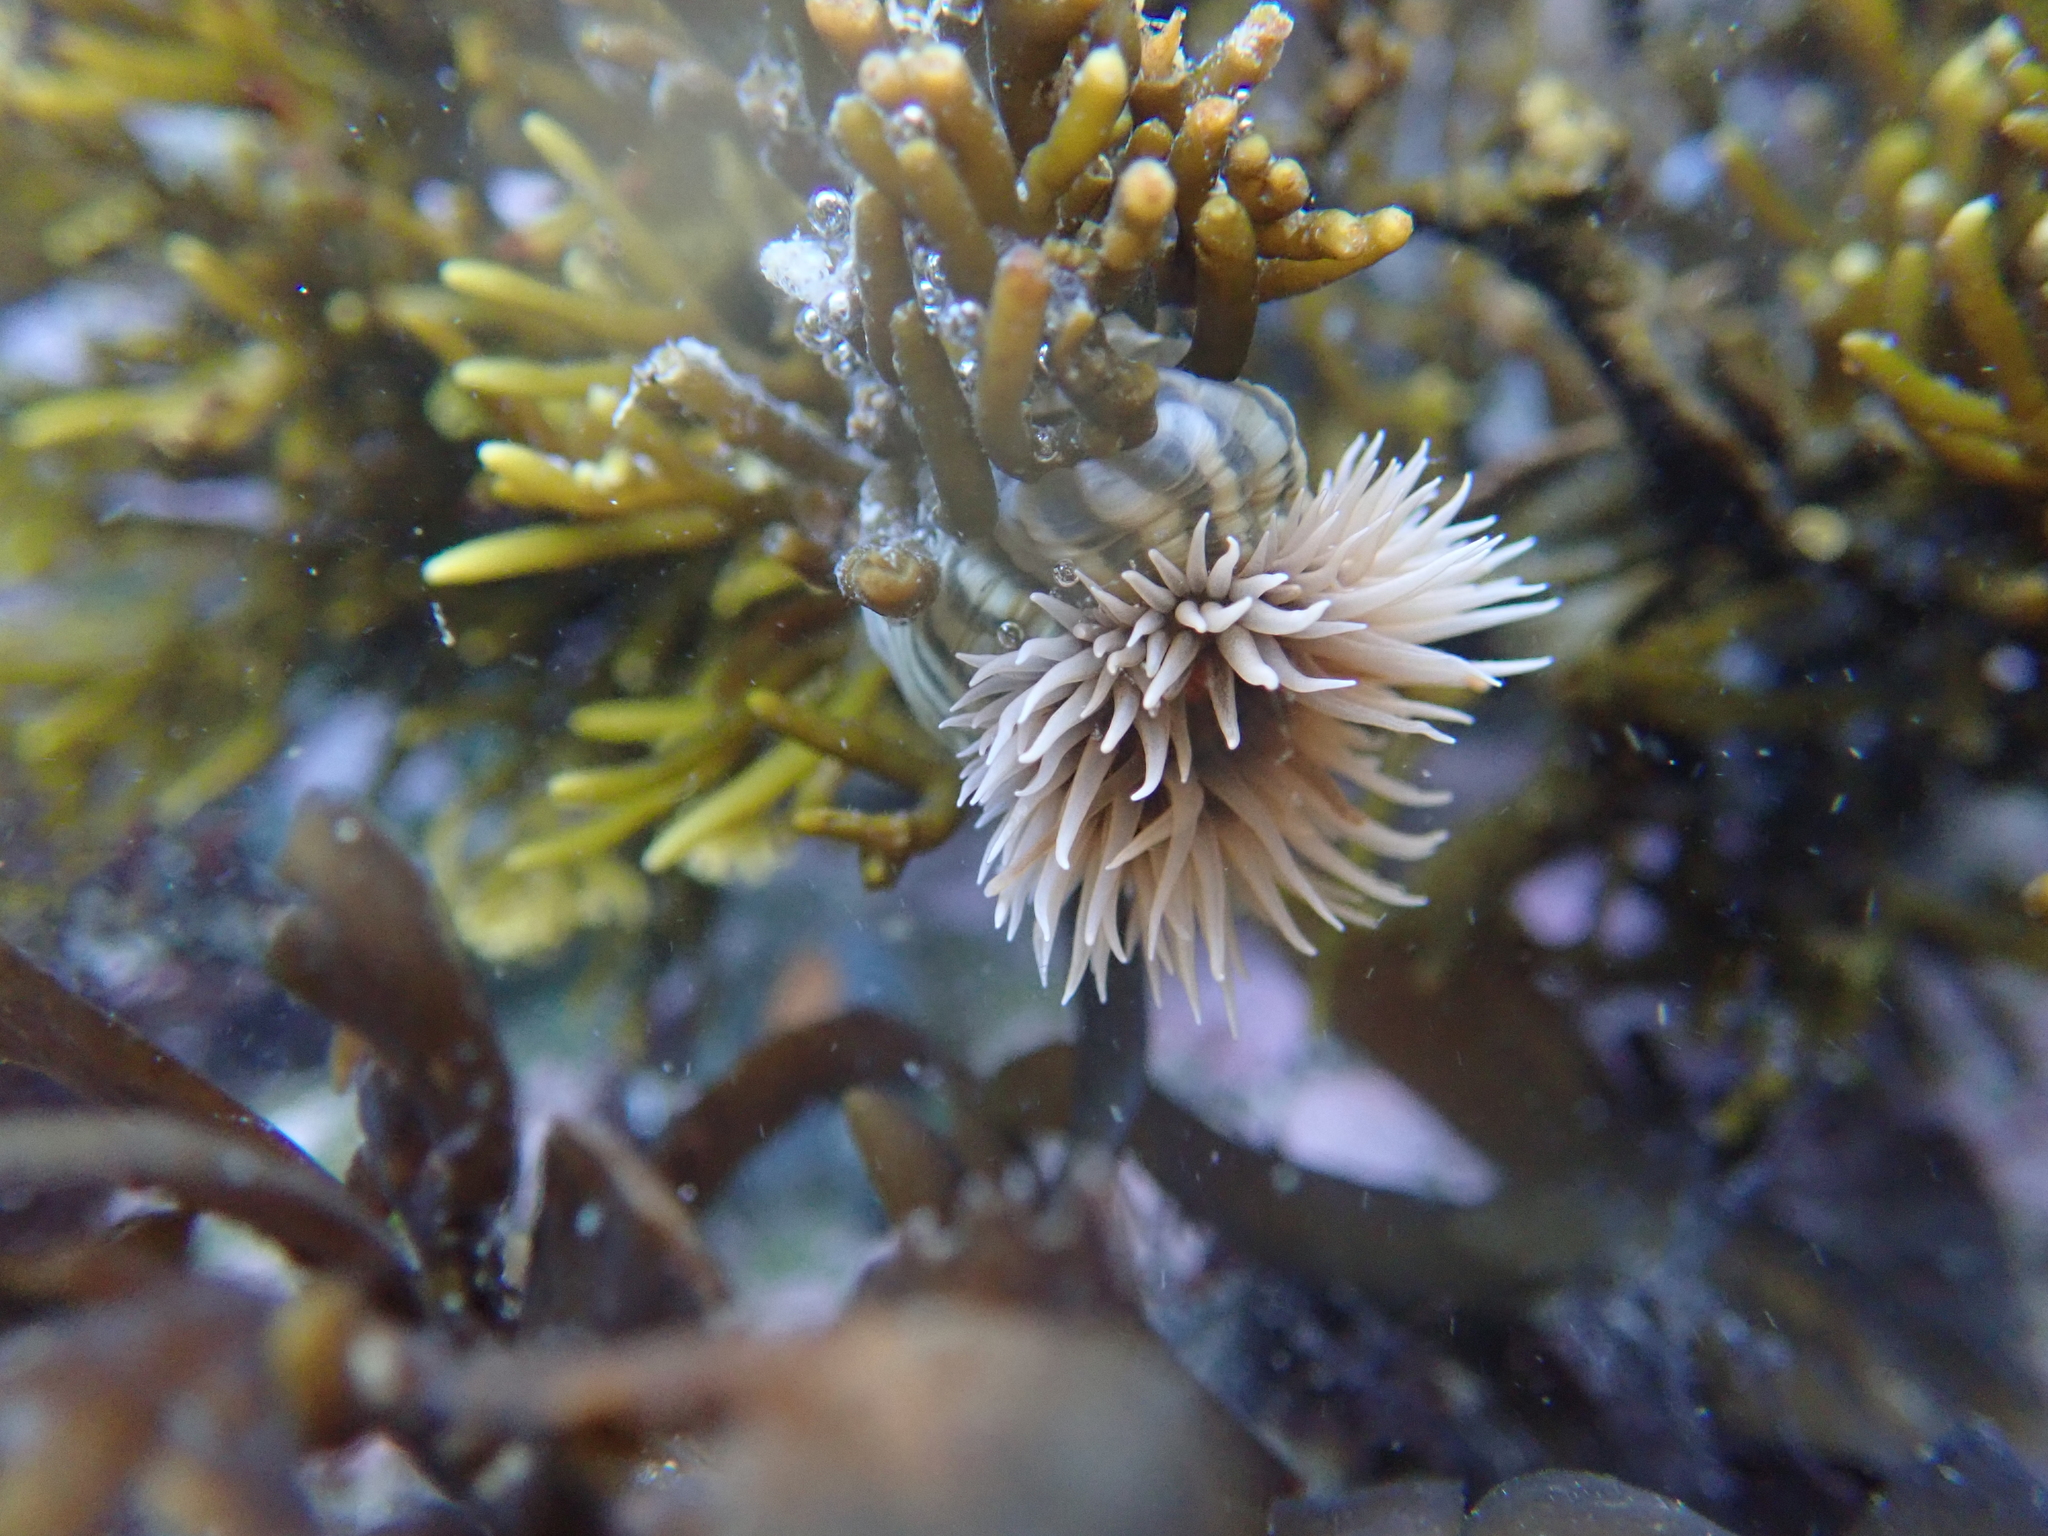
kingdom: Animalia
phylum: Cnidaria
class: Anthozoa
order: Actiniaria
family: Diadumenidae
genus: Diadumene
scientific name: Diadumene neozelanica
